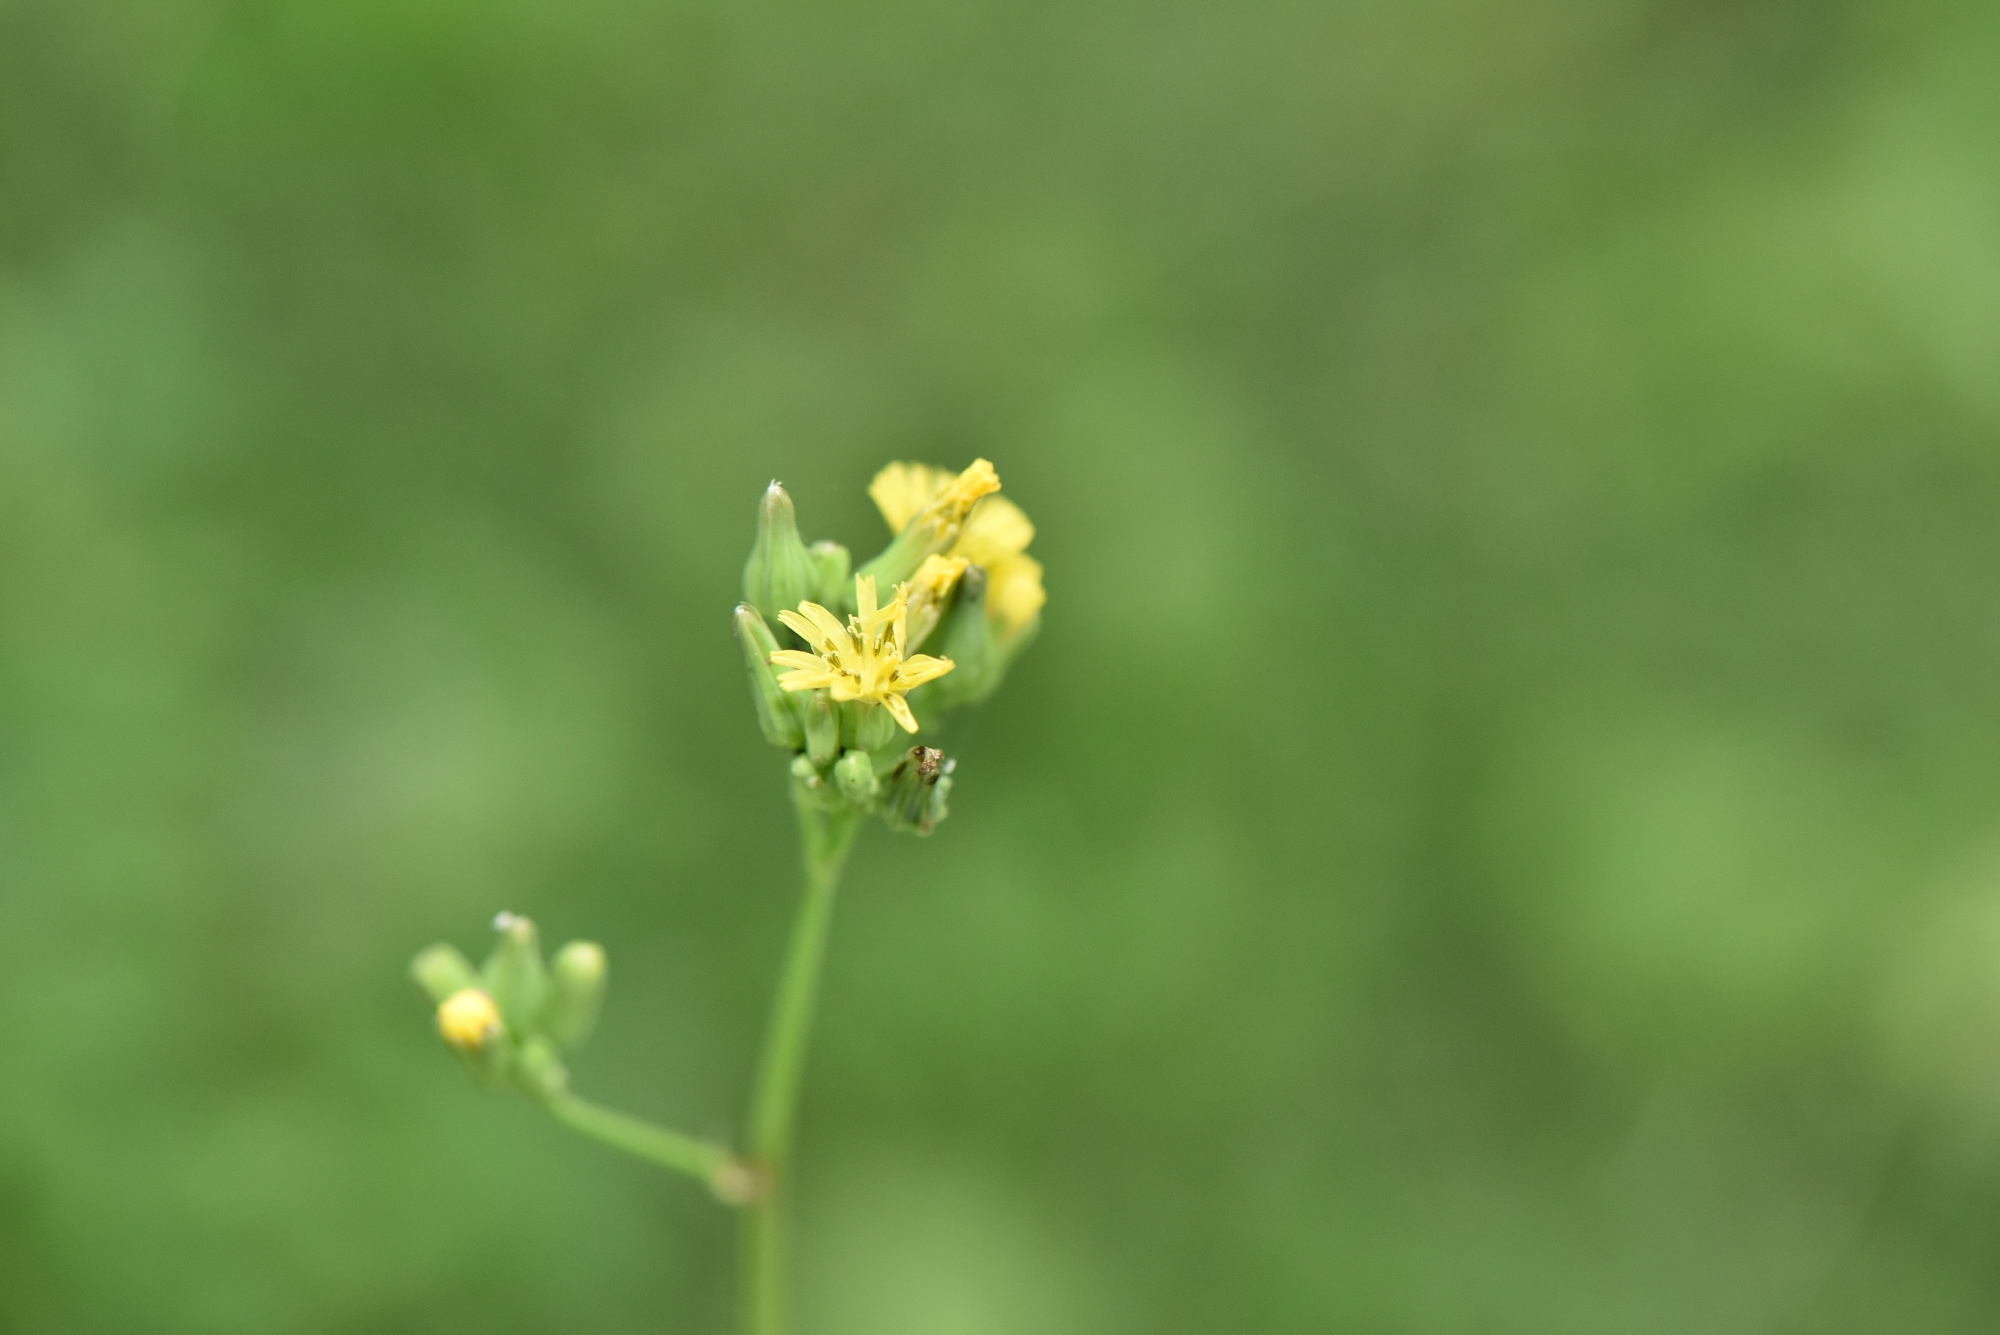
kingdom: Plantae
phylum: Tracheophyta
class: Magnoliopsida
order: Asterales
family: Asteraceae
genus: Youngia
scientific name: Youngia japonica
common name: Oriental false hawksbeard
